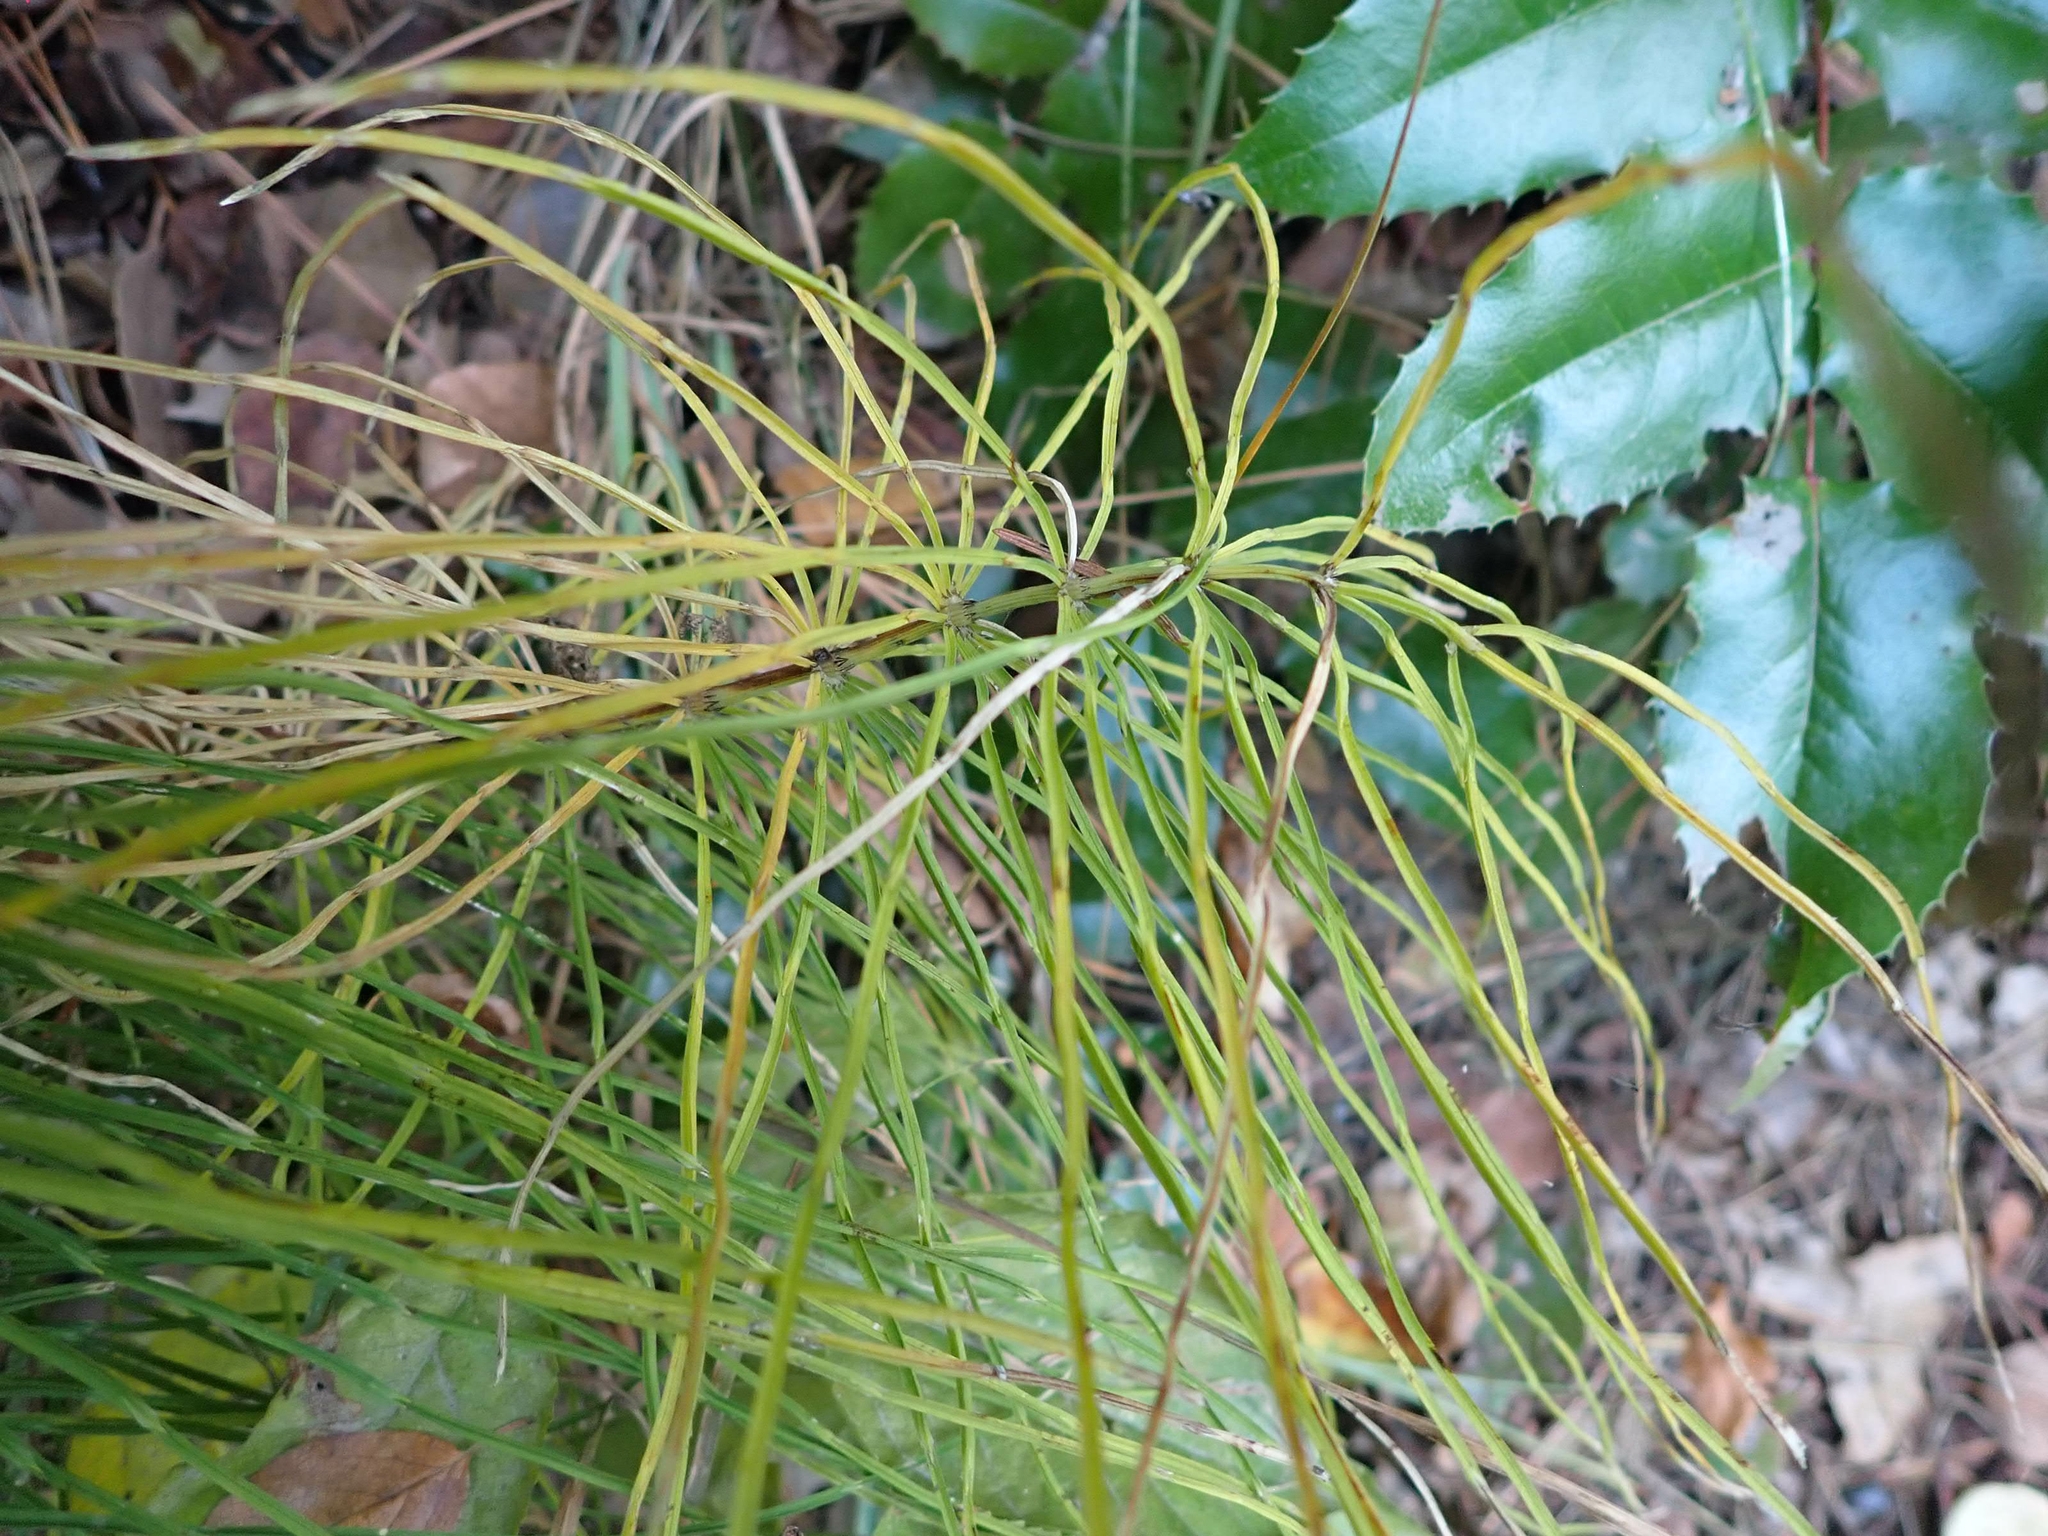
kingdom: Plantae
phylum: Tracheophyta
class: Polypodiopsida
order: Equisetales
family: Equisetaceae
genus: Equisetum
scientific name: Equisetum arvense
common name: Field horsetail
